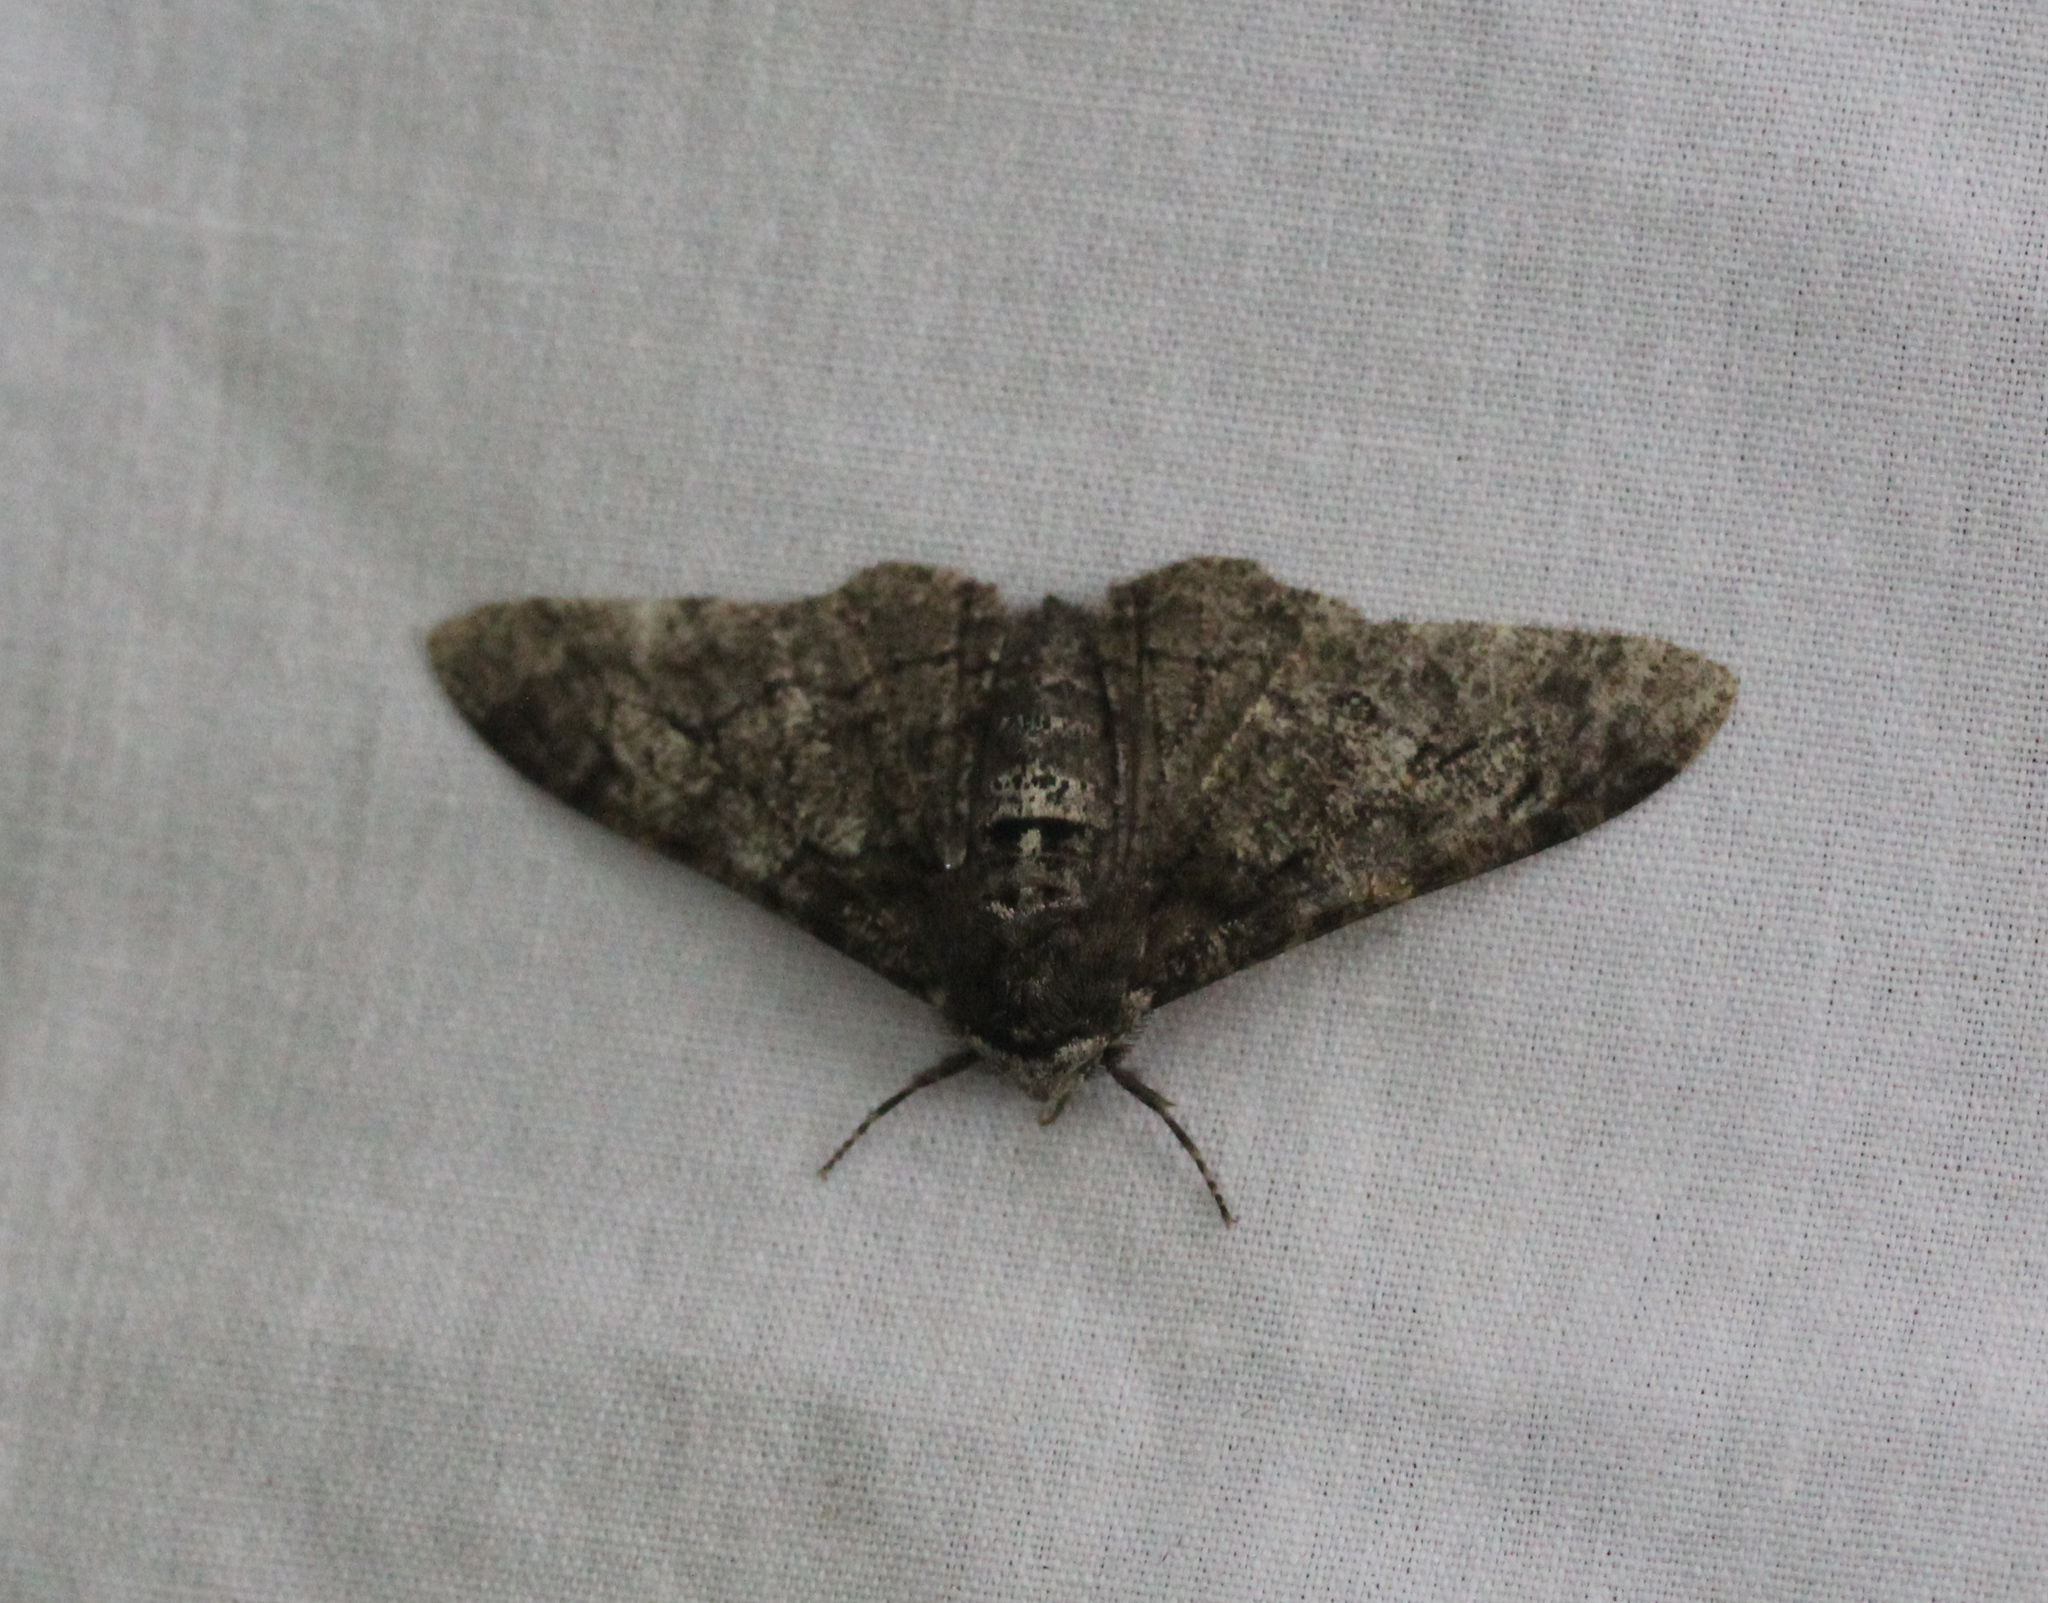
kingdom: Animalia
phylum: Arthropoda
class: Insecta
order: Lepidoptera
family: Geometridae
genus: Biston
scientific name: Biston betularia
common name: Peppered moth
